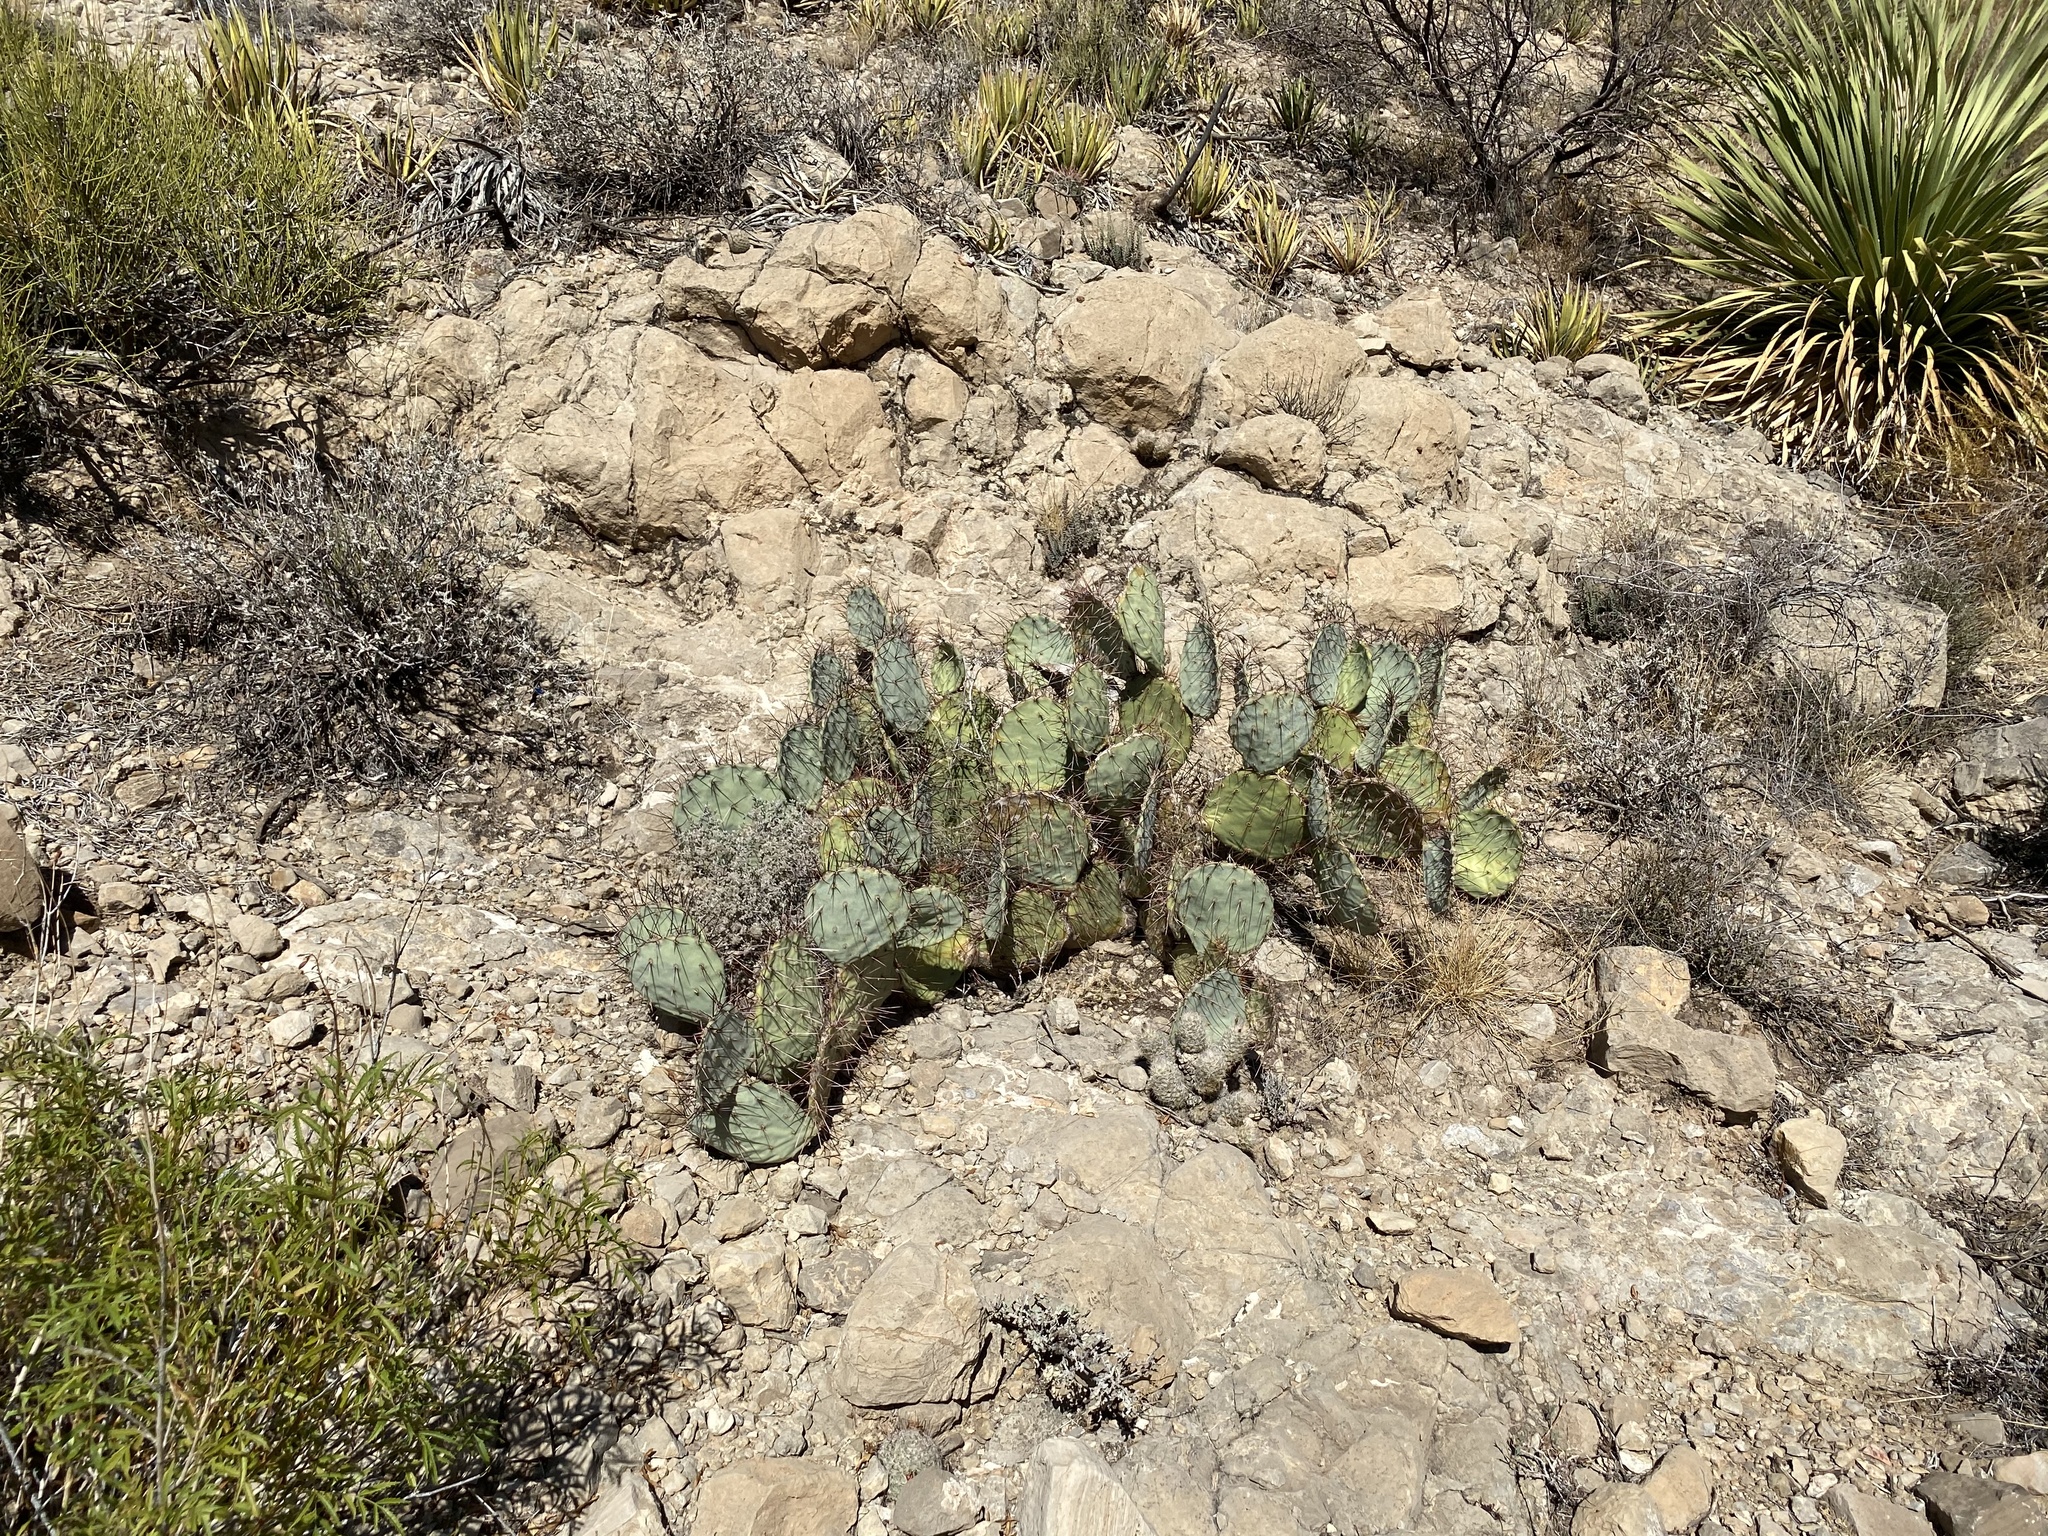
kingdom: Plantae
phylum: Tracheophyta
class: Magnoliopsida
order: Caryophyllales
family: Cactaceae
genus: Opuntia
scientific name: Opuntia engelmannii
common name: Cactus-apple
